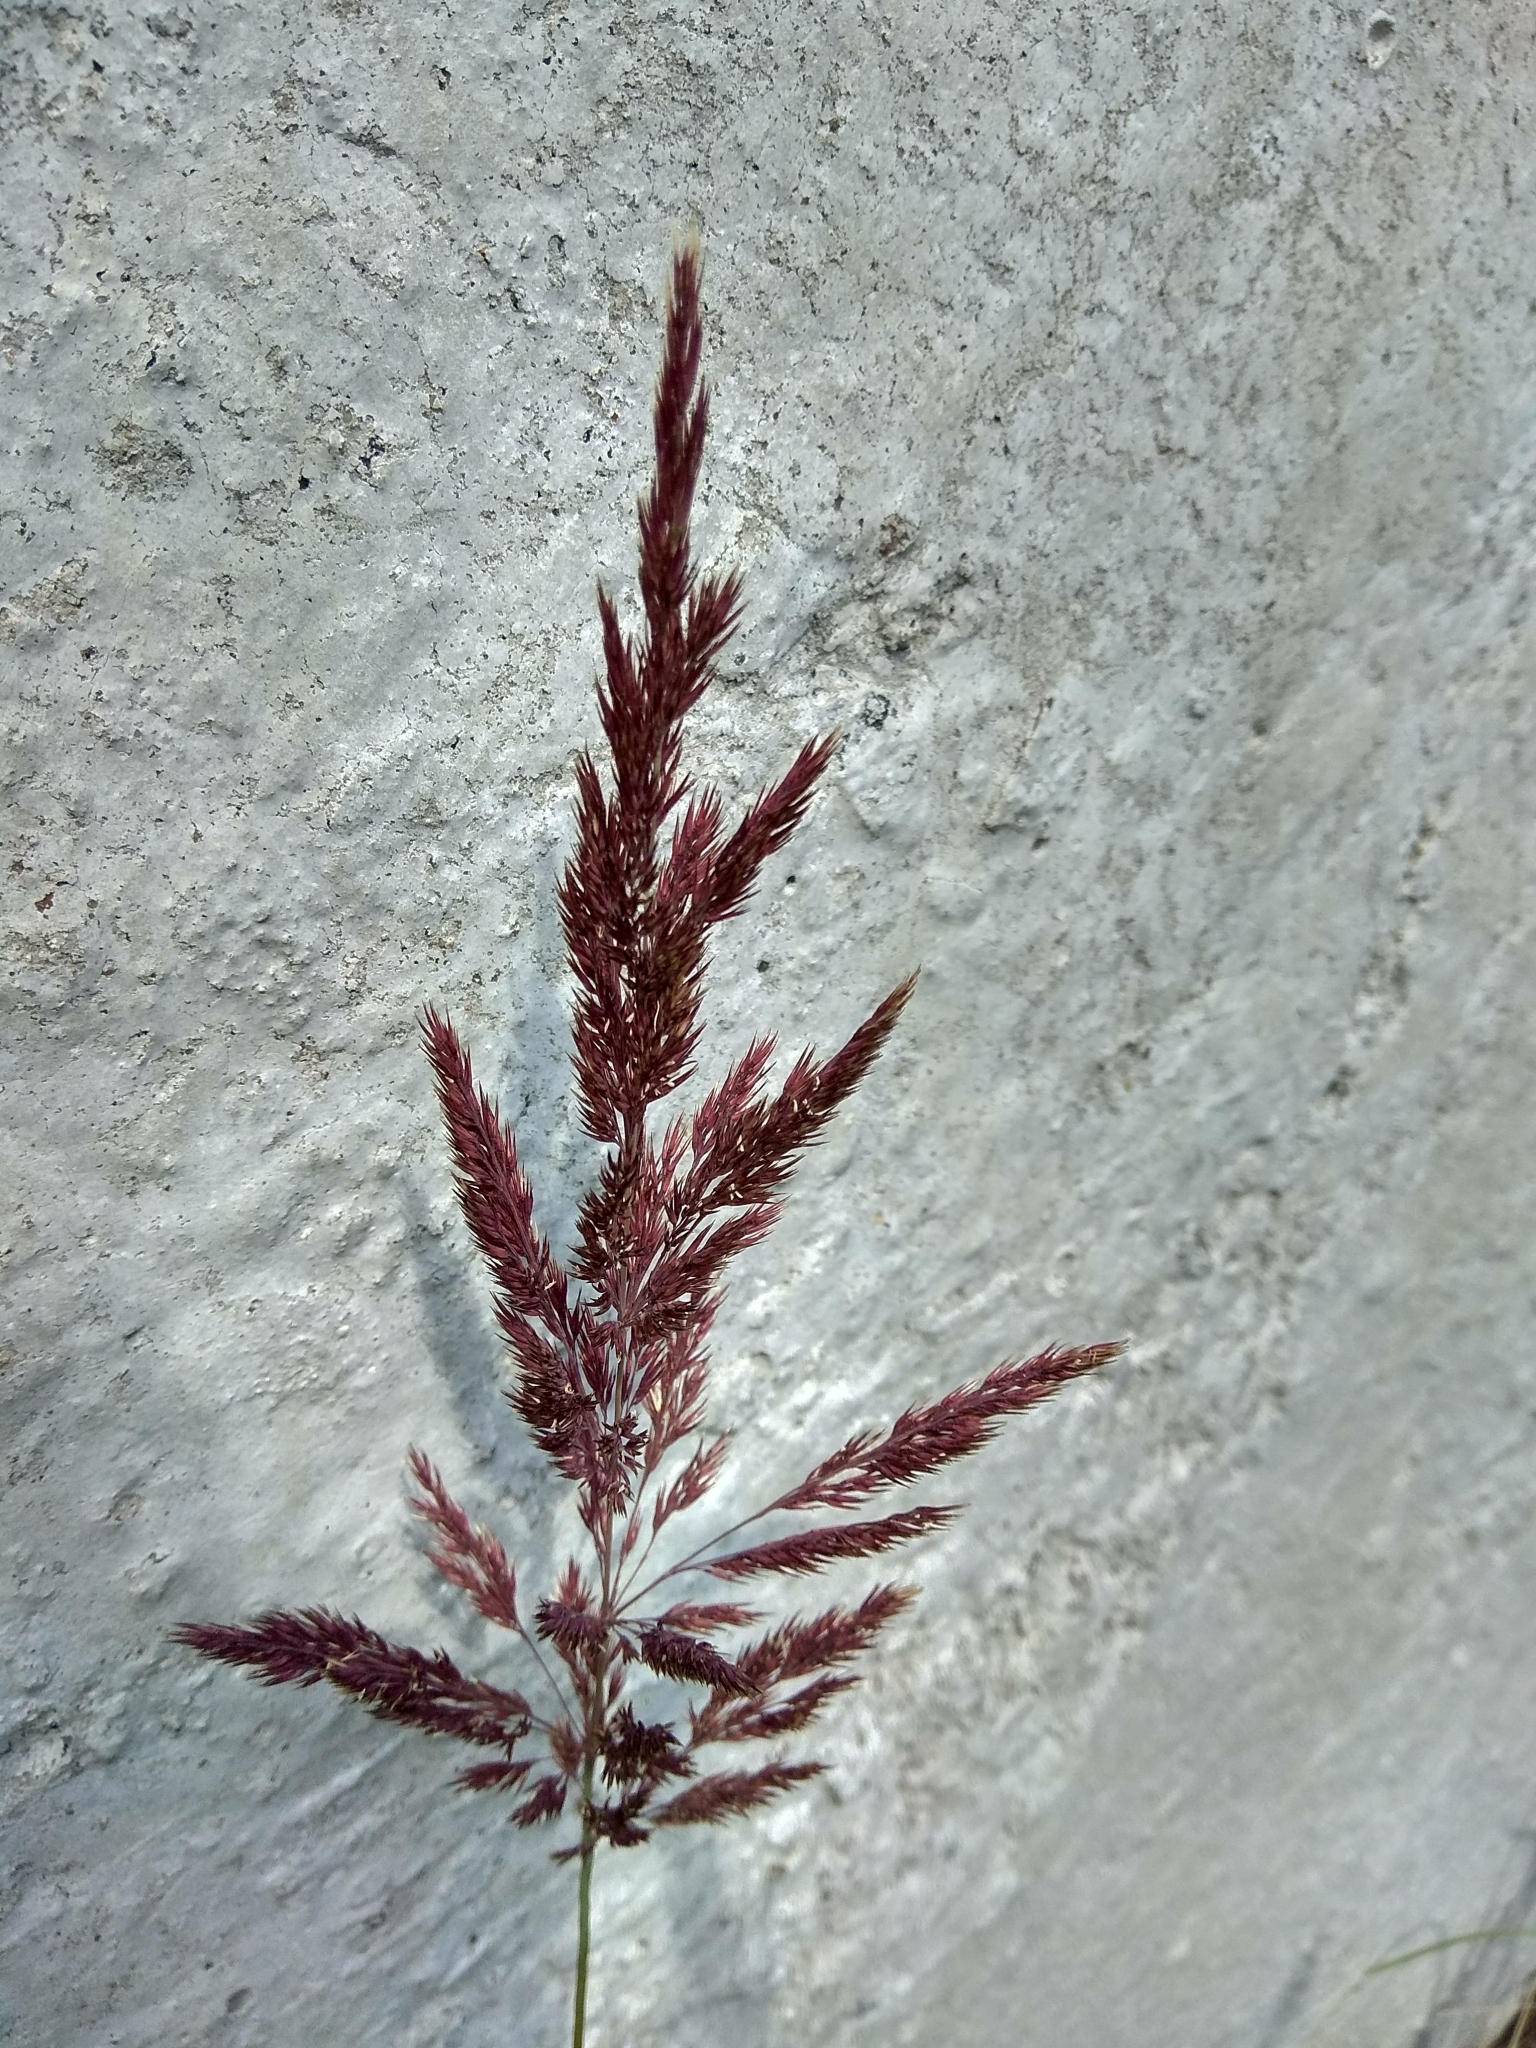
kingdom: Plantae
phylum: Tracheophyta
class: Liliopsida
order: Poales
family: Poaceae
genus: Calamagrostis
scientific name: Calamagrostis epigejos
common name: Wood small-reed
